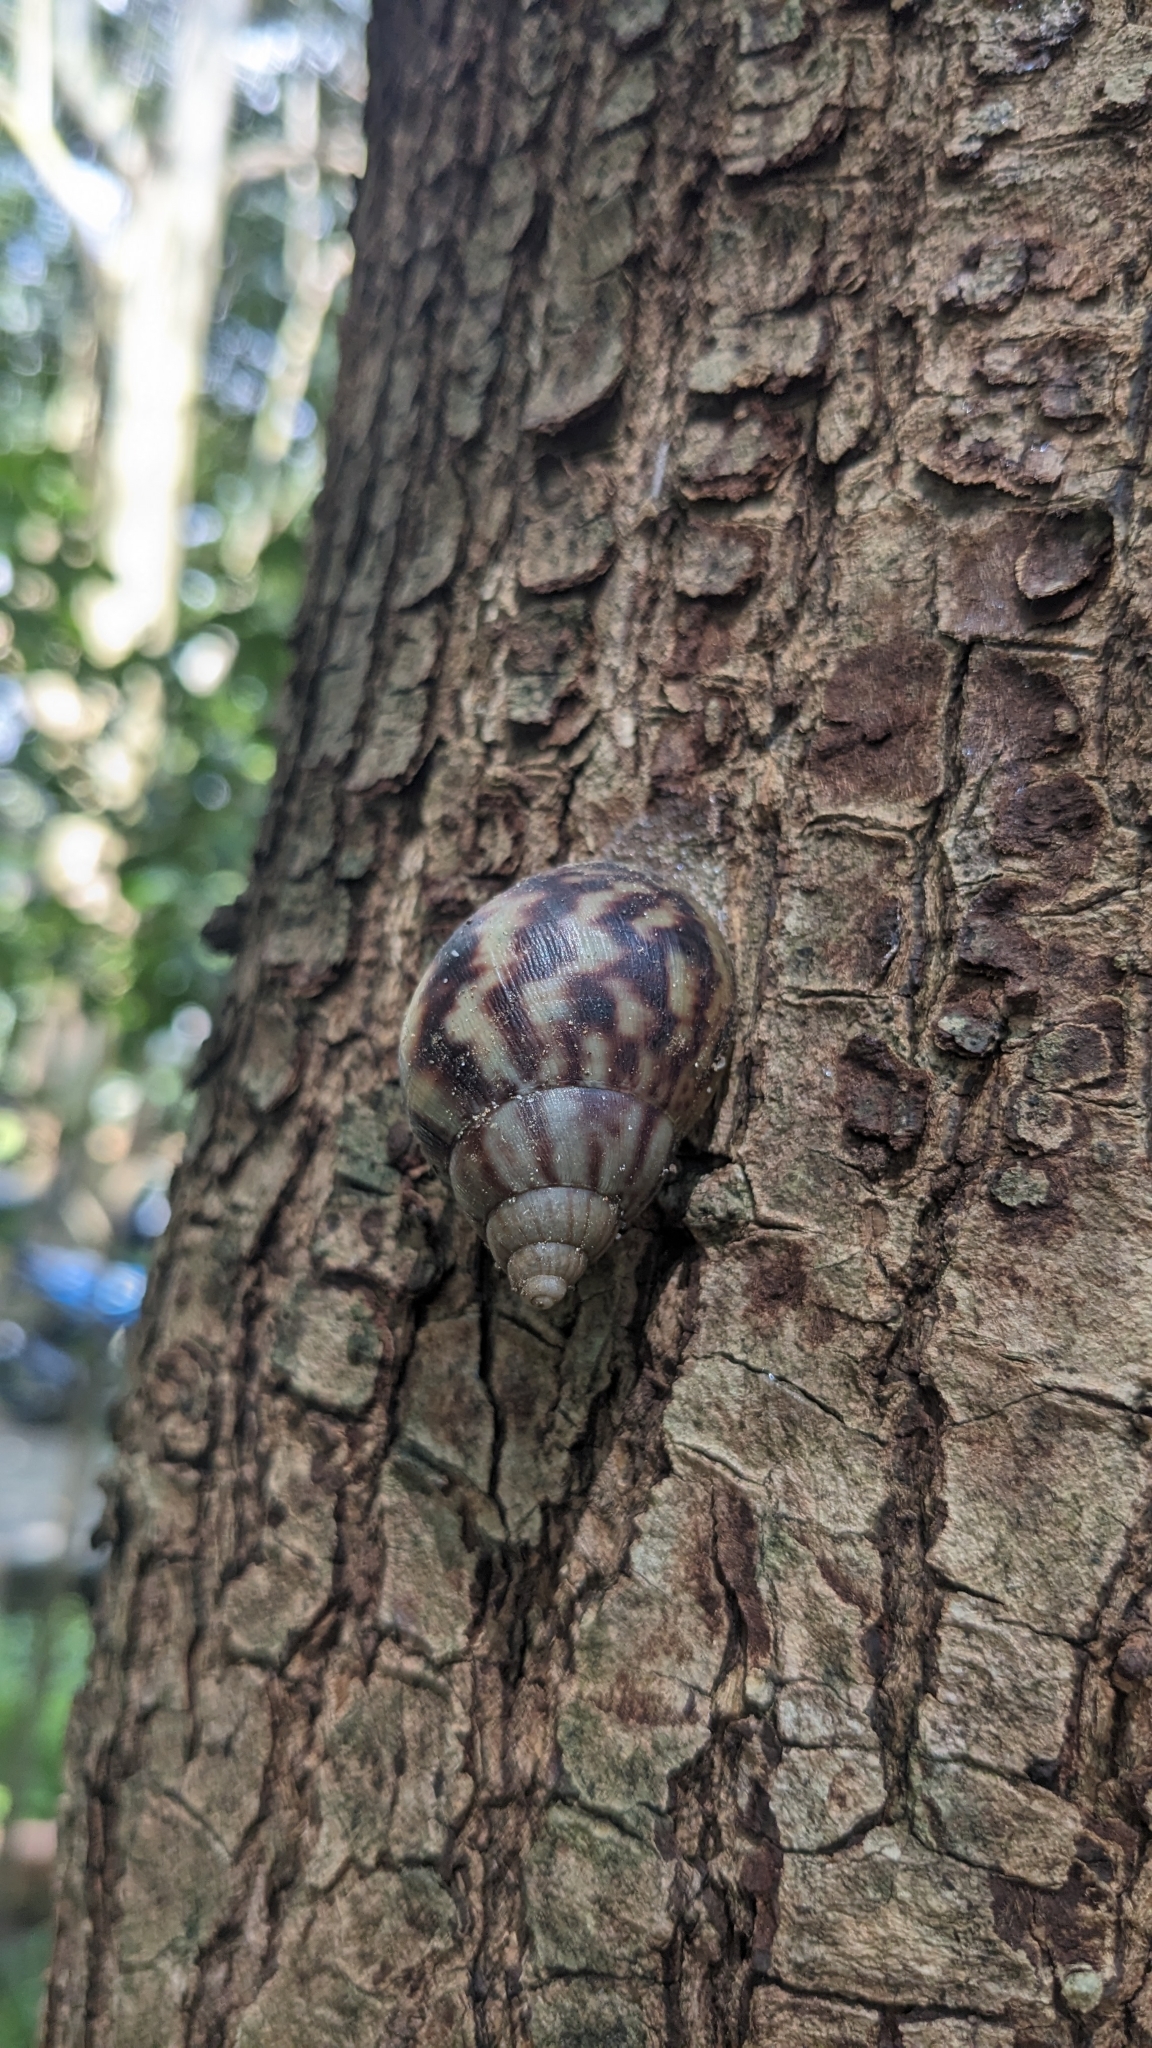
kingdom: Animalia
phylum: Mollusca
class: Gastropoda
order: Stylommatophora
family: Achatinidae
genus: Lissachatina
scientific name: Lissachatina fulica
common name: Giant african snail
